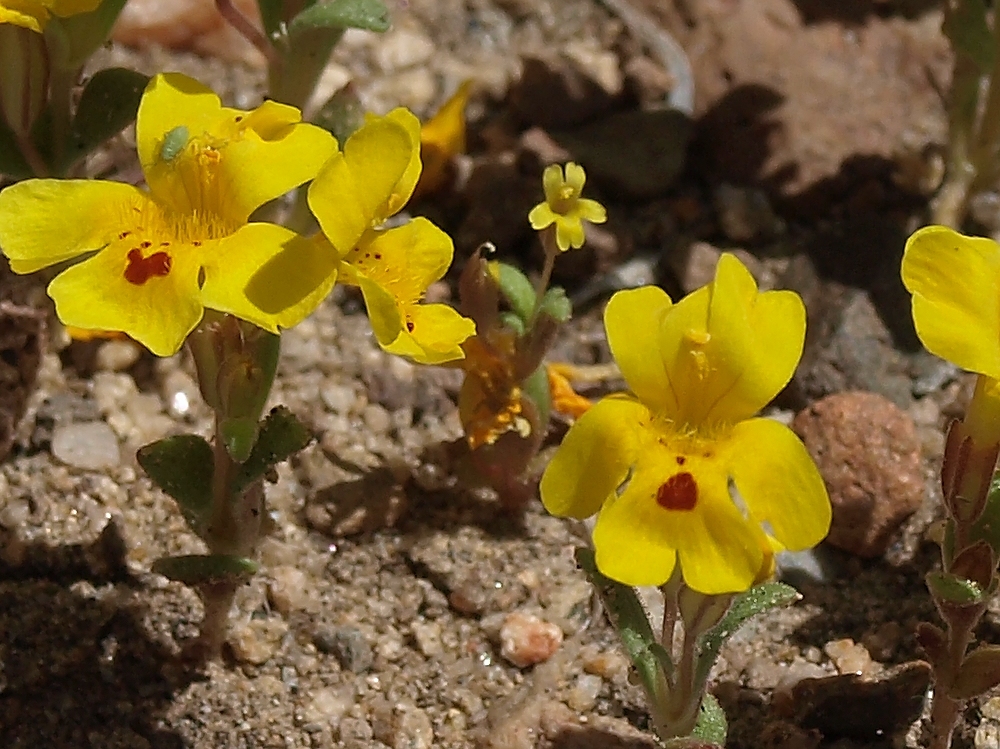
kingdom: Plantae
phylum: Tracheophyta
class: Magnoliopsida
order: Lamiales
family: Phrymaceae
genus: Erythranthe
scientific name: Erythranthe suksdorfii
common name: Suksdorf's monkeyflower
